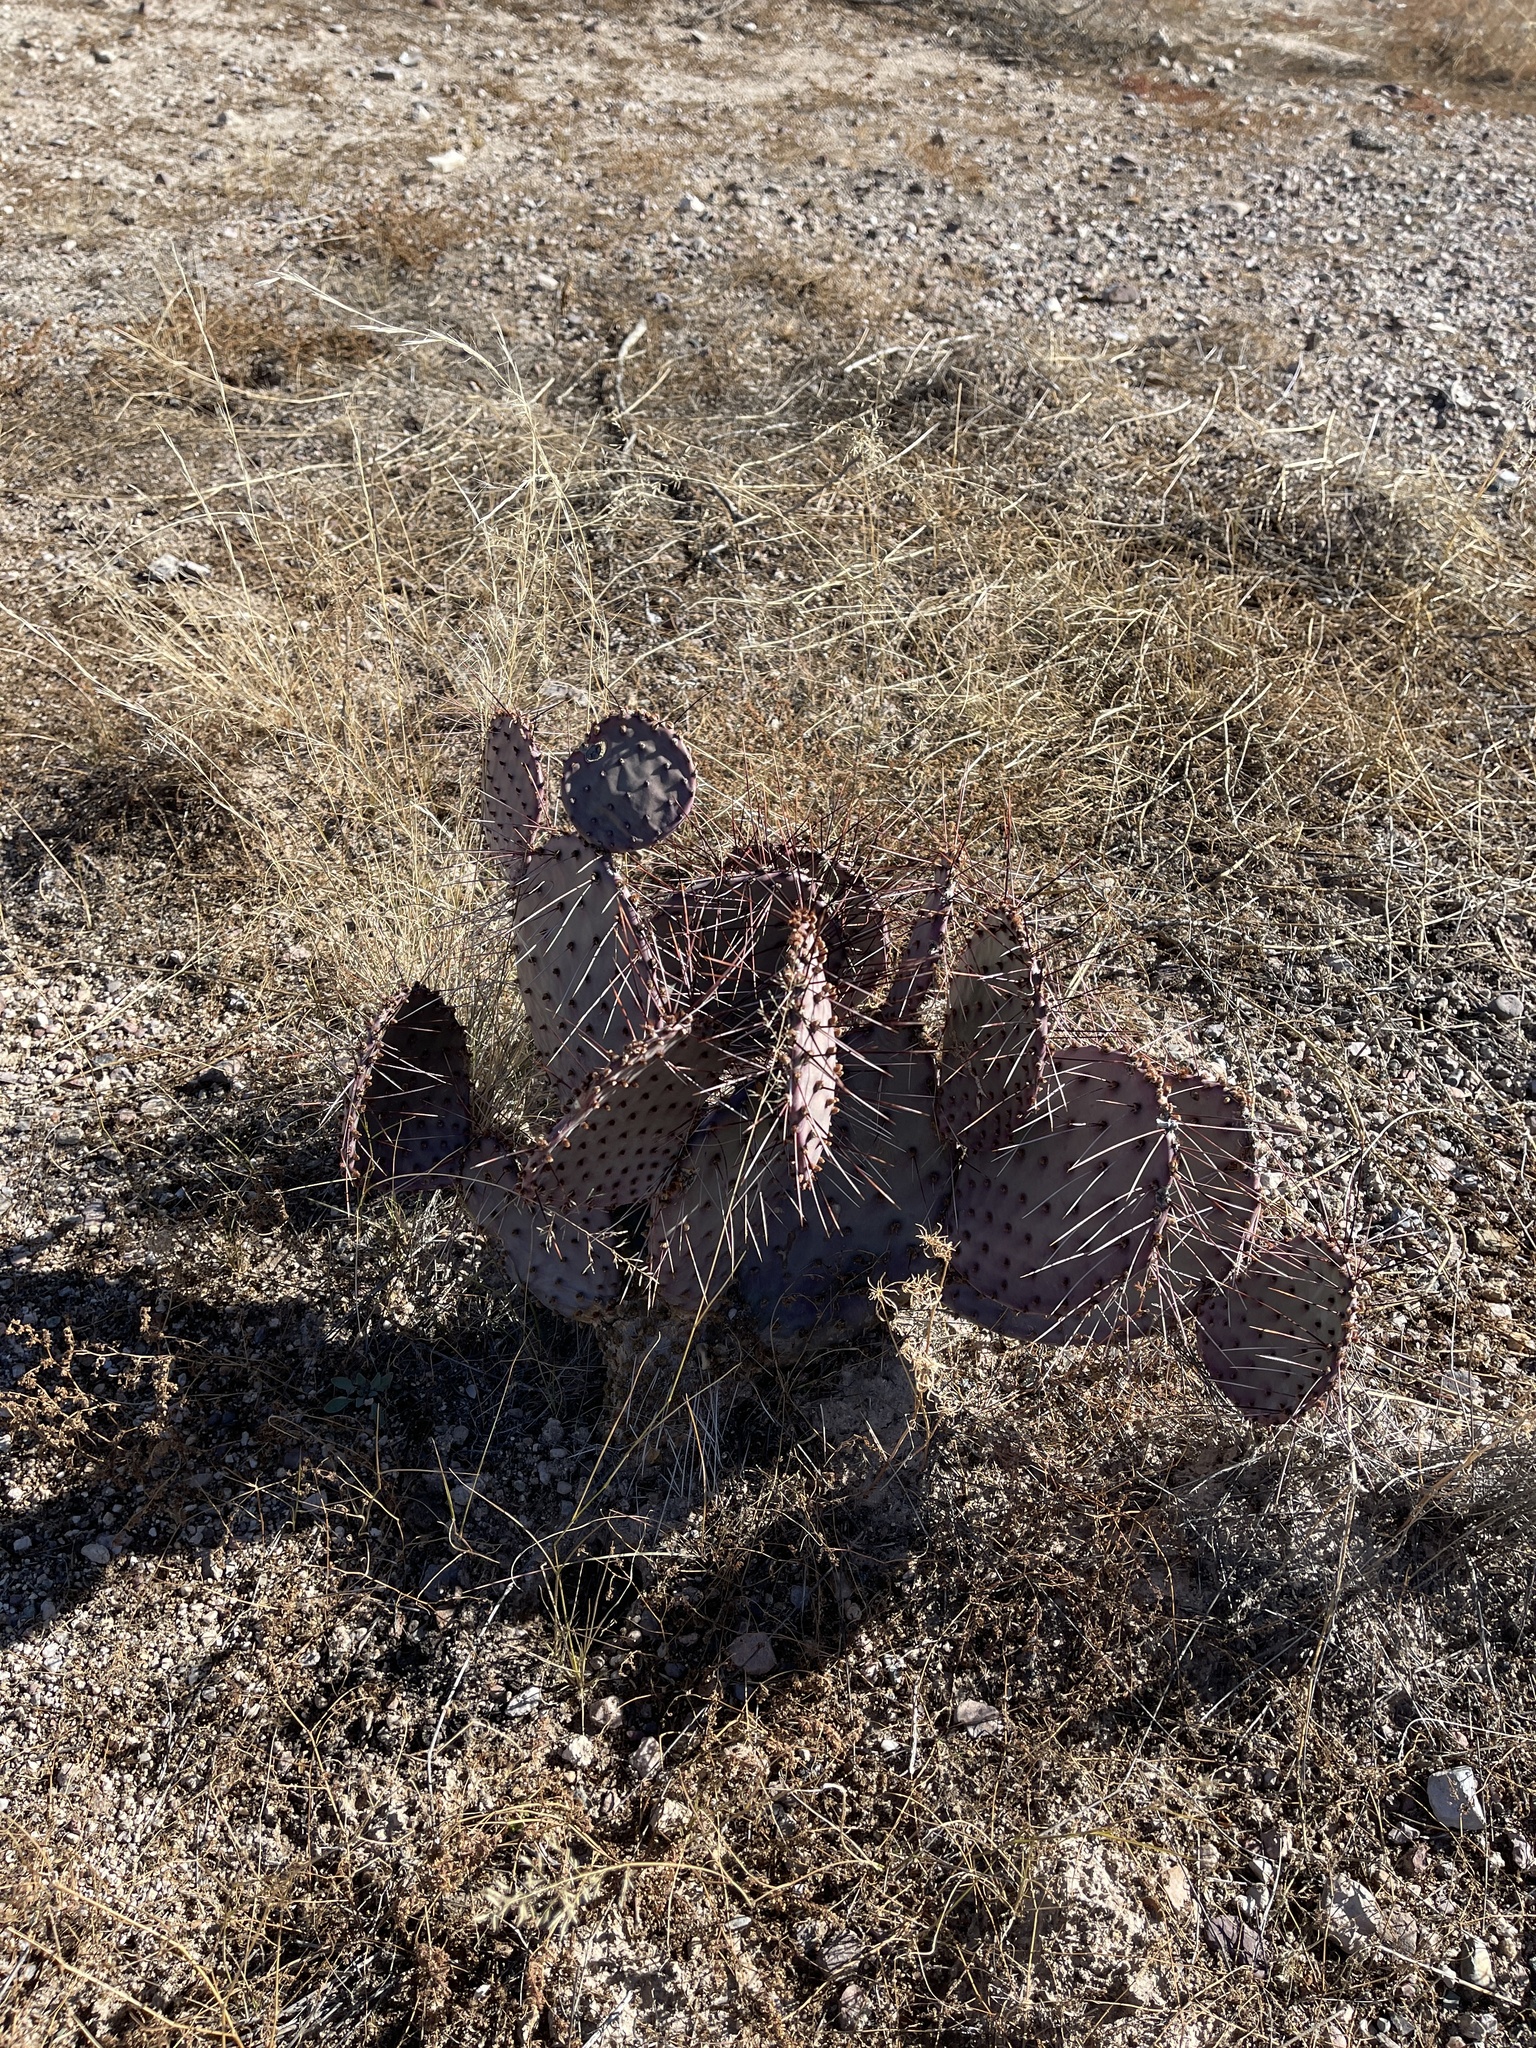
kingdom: Plantae
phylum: Tracheophyta
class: Magnoliopsida
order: Caryophyllales
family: Cactaceae
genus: Opuntia
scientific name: Opuntia macrocentra
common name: Purple prickly-pear
